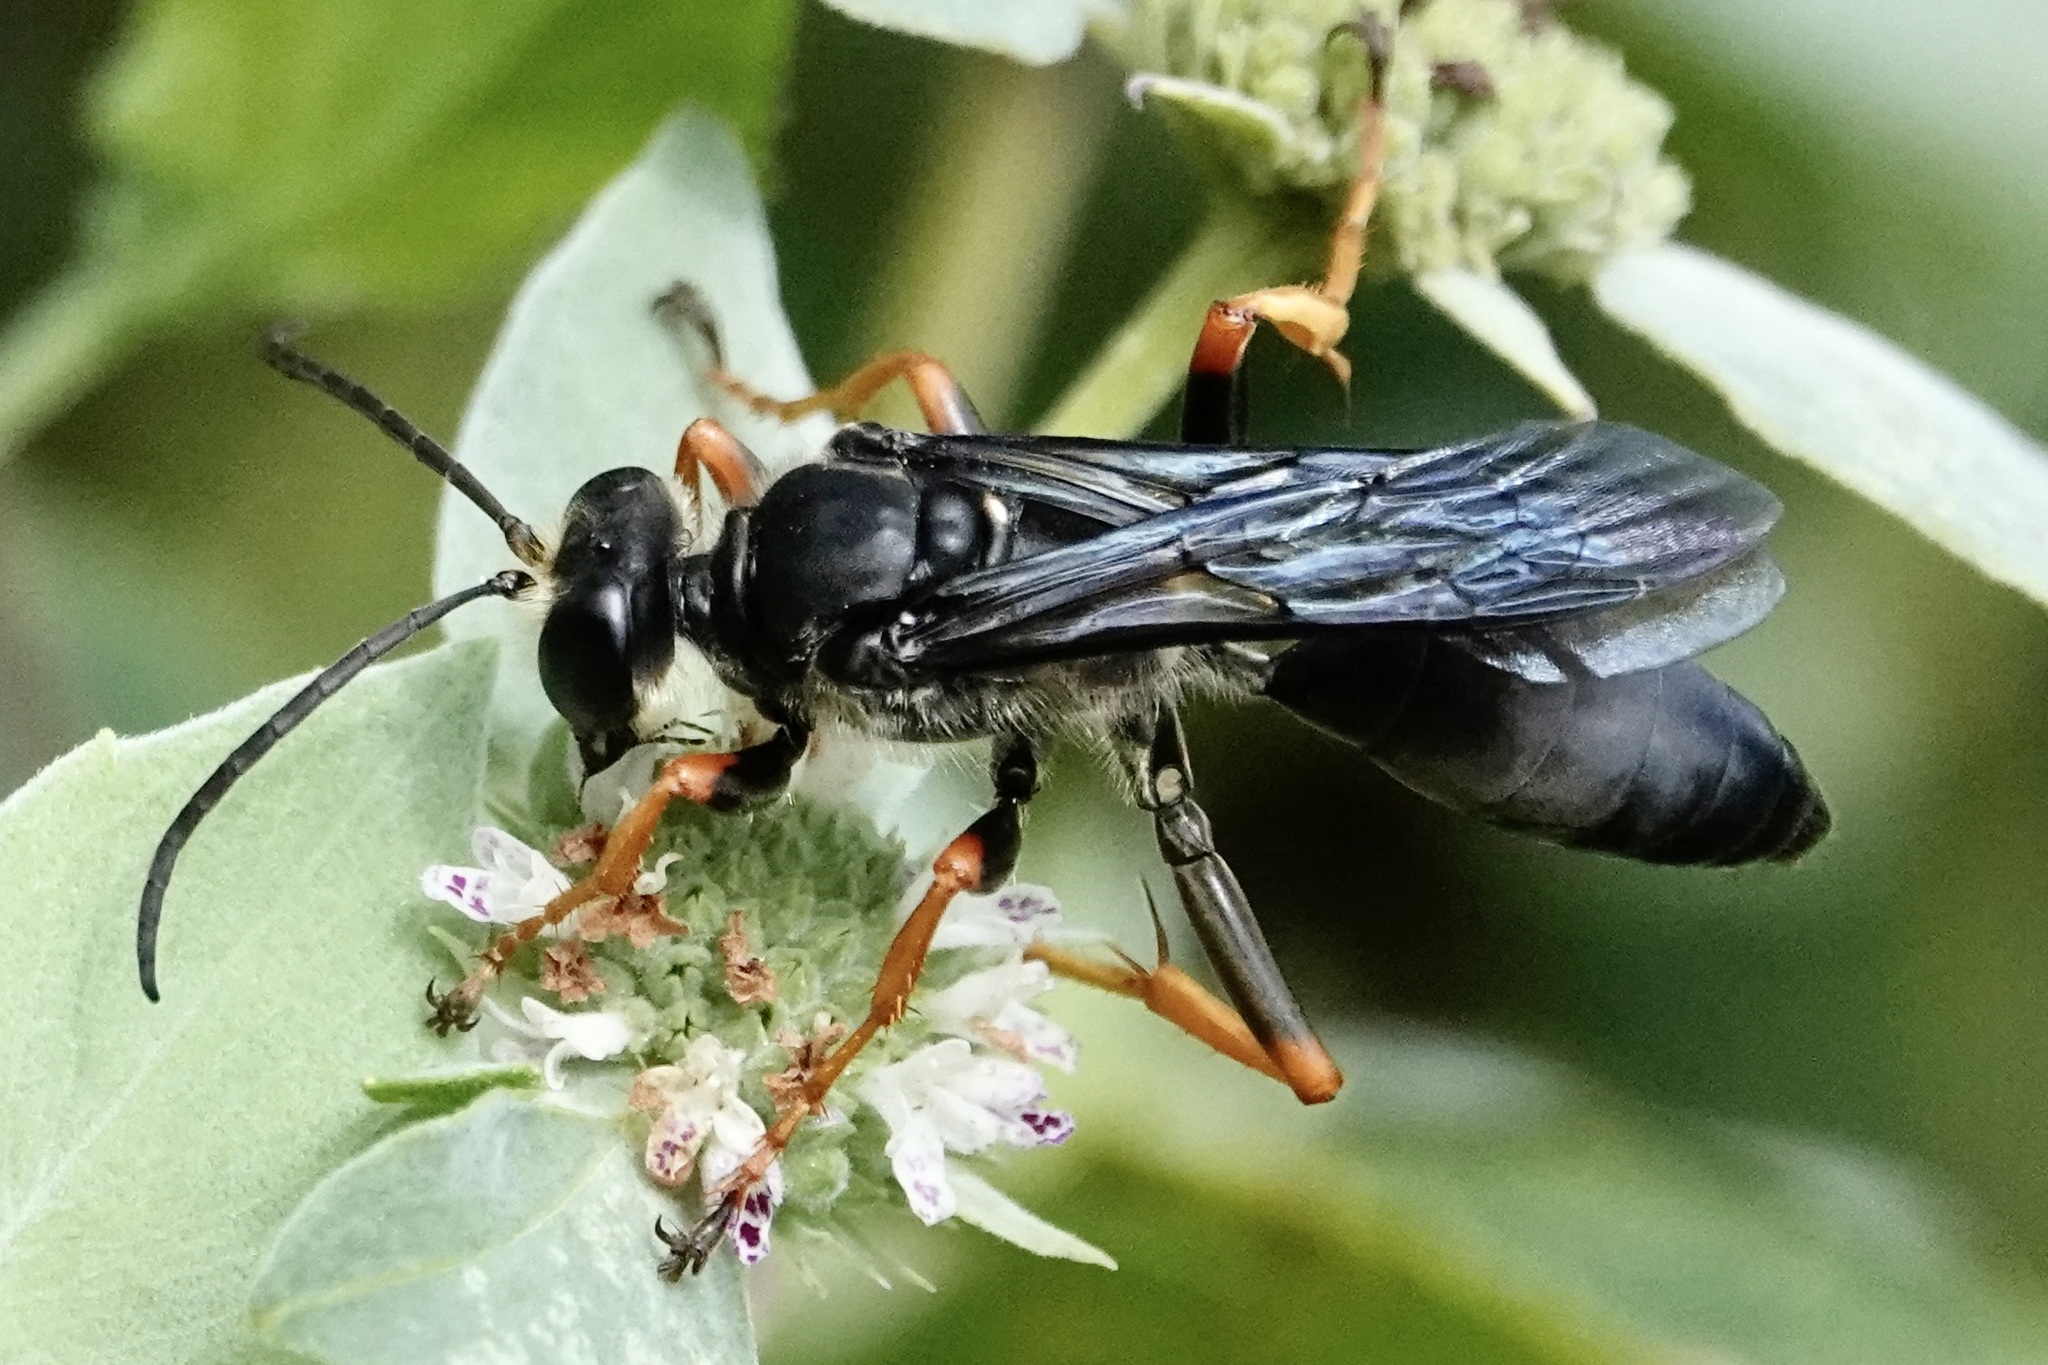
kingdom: Animalia
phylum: Arthropoda
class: Insecta
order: Hymenoptera
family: Sphecidae
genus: Sphex
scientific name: Sphex nudus
